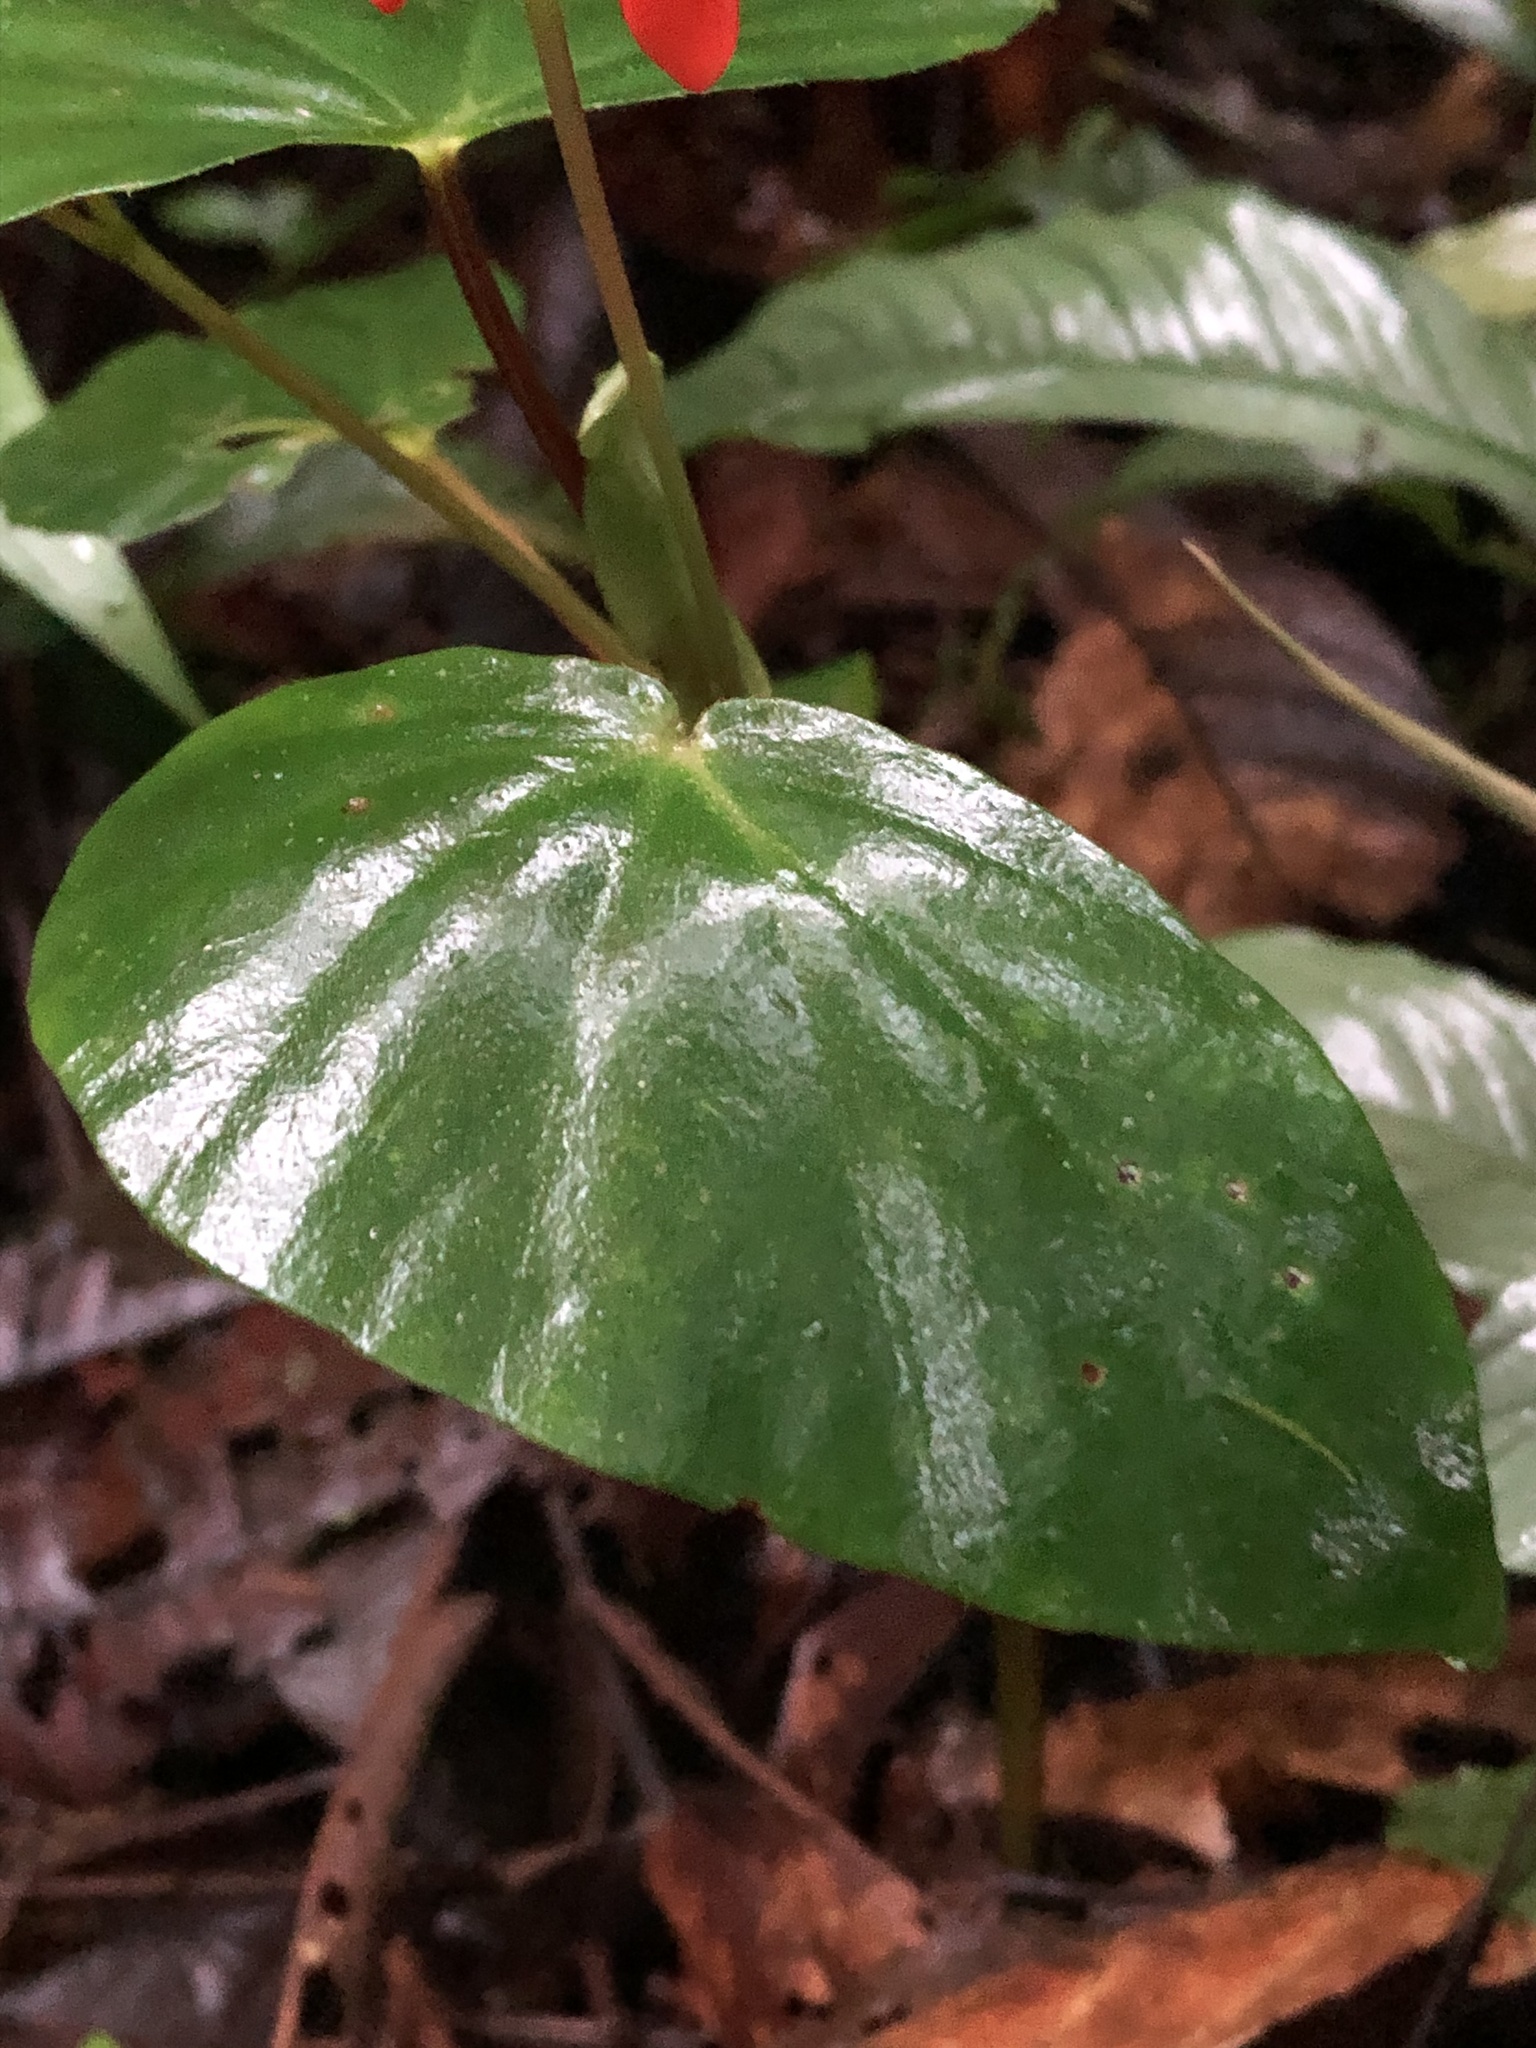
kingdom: Plantae
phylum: Tracheophyta
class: Magnoliopsida
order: Cucurbitales
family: Begoniaceae
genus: Begonia
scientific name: Begonia stenotepala
